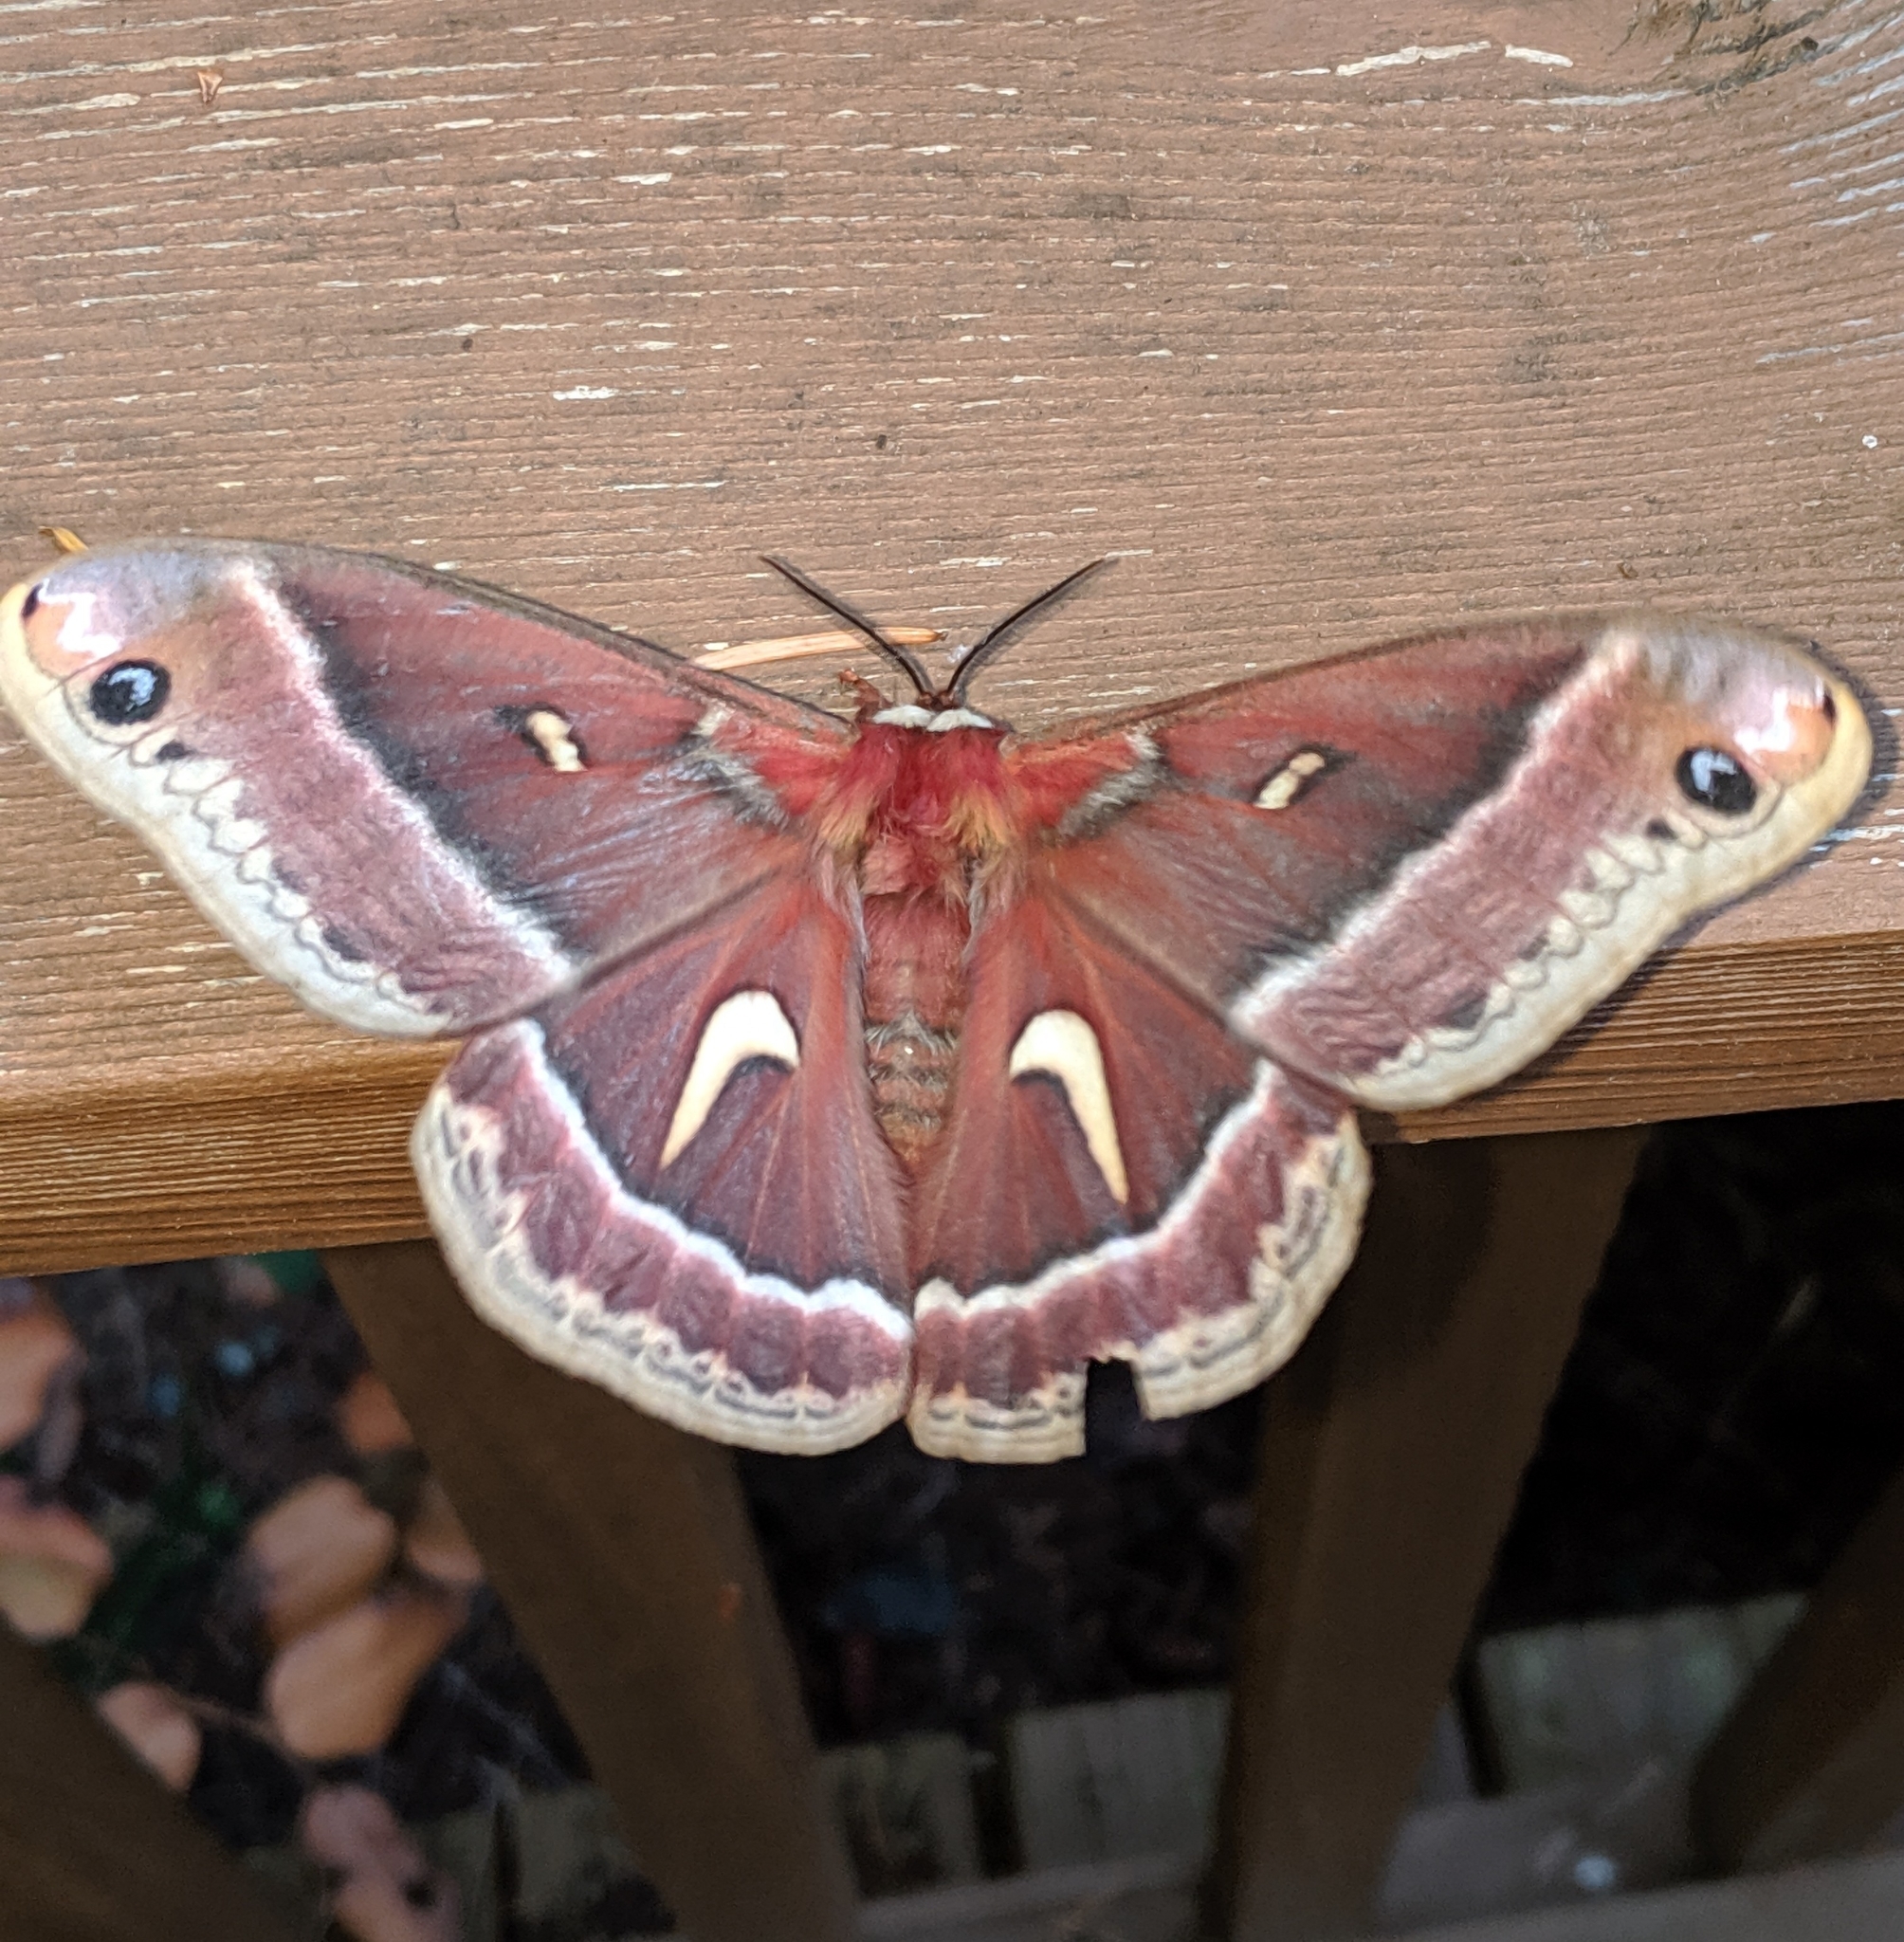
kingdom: Animalia
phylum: Arthropoda
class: Insecta
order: Lepidoptera
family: Saturniidae
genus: Hyalophora
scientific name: Hyalophora euryalus
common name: Ceanothus silkmoth
